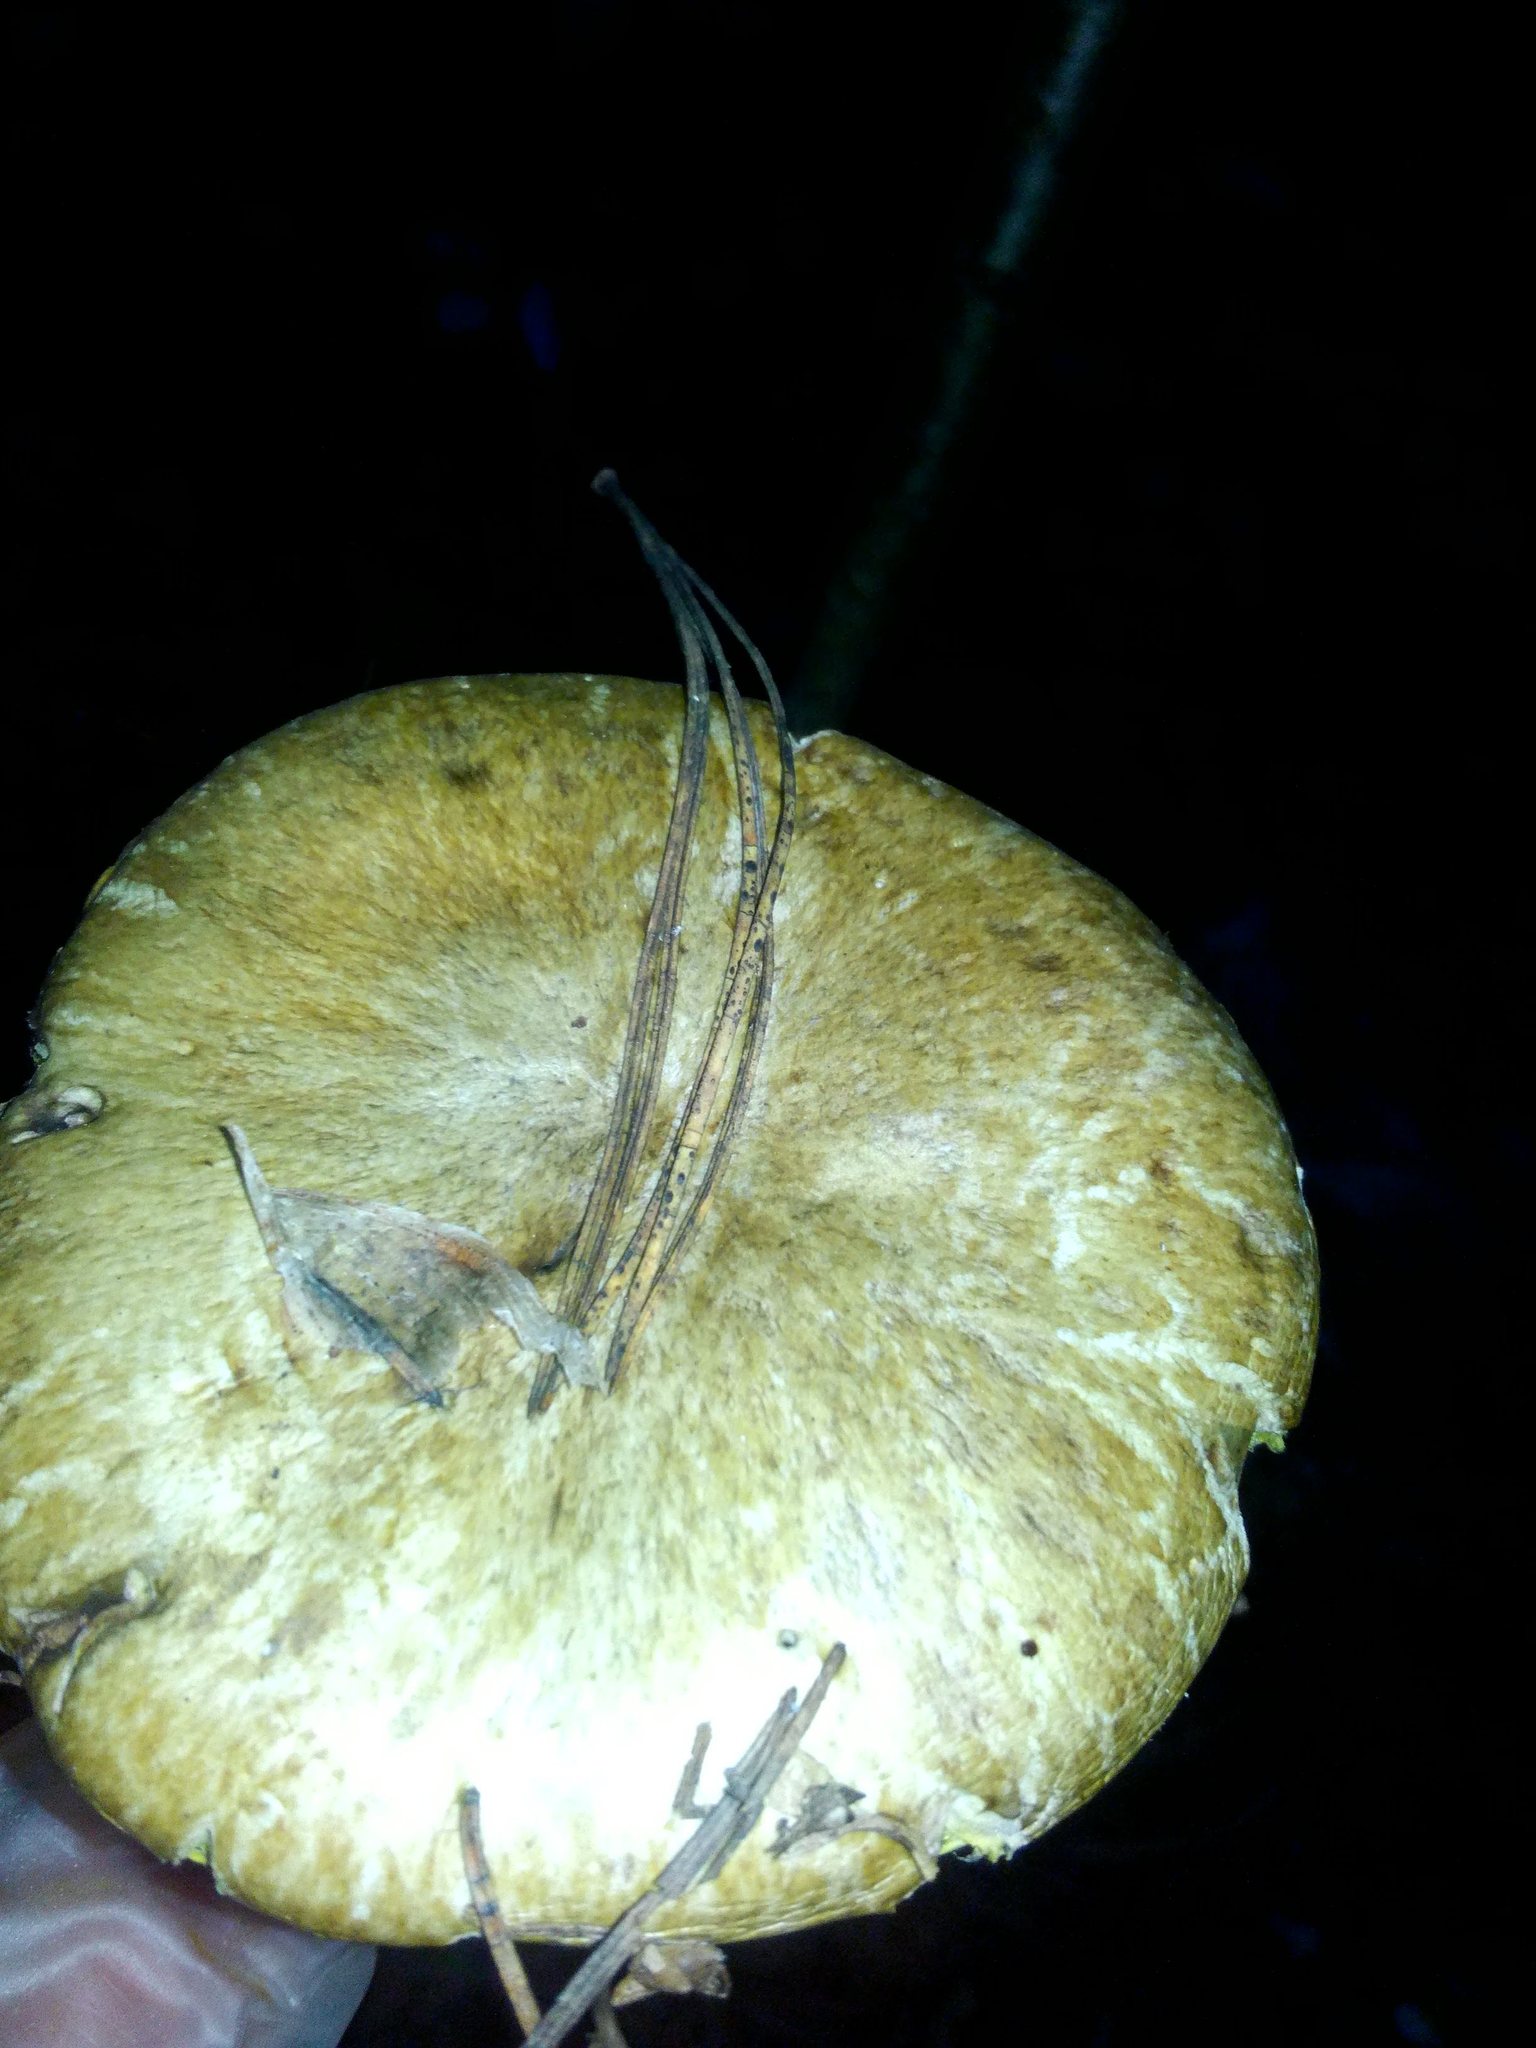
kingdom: Fungi
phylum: Basidiomycota
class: Agaricomycetes
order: Boletales
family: Suillaceae
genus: Suillus
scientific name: Suillus acidus
